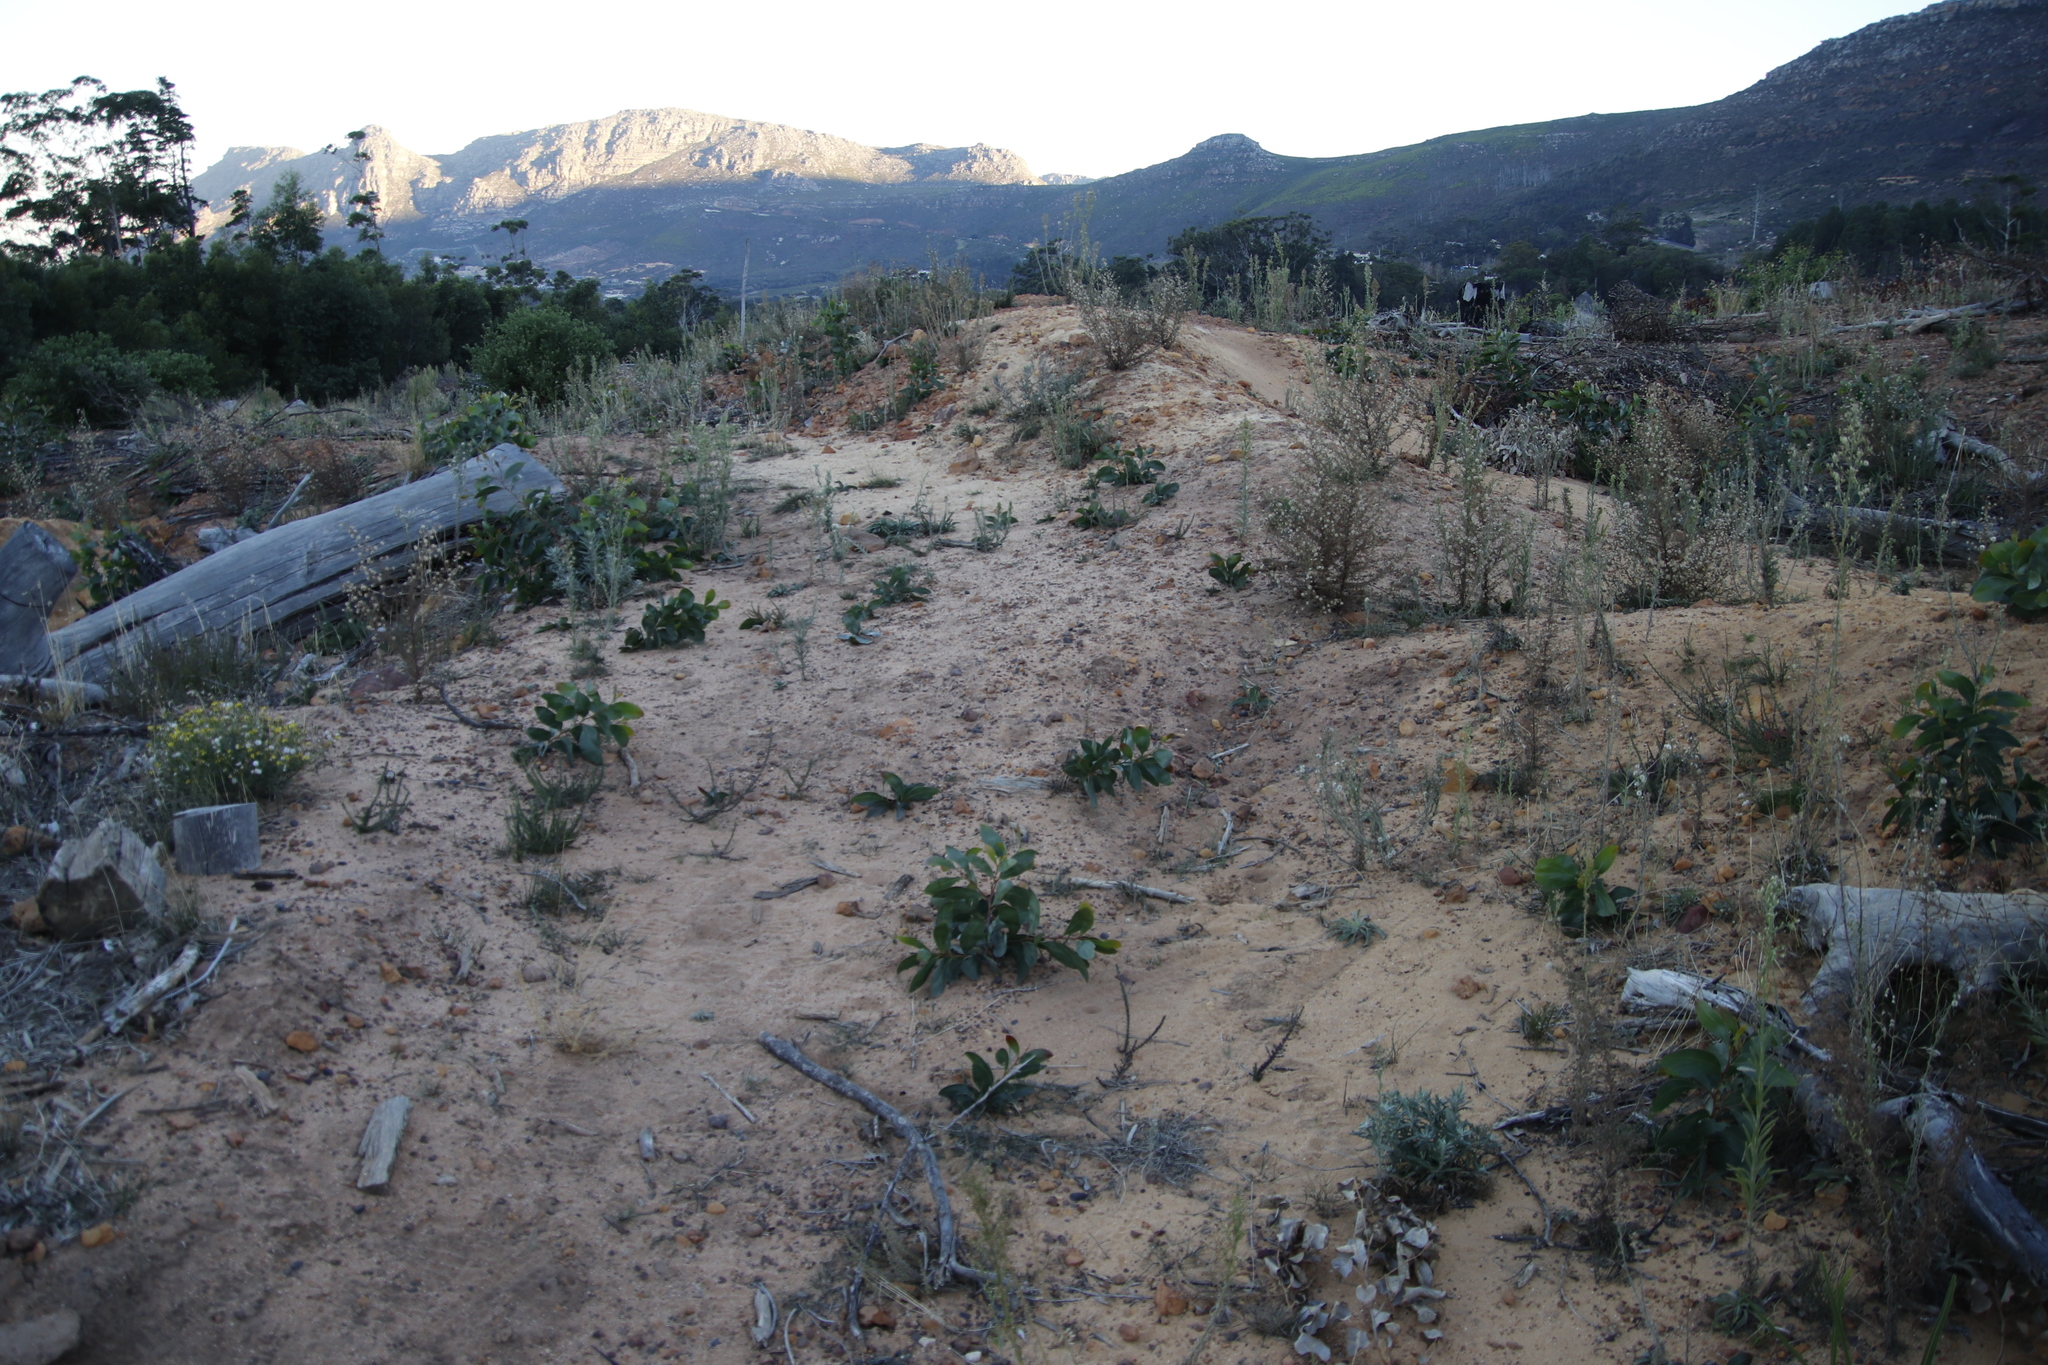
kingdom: Plantae
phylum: Tracheophyta
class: Magnoliopsida
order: Fabales
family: Fabaceae
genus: Acacia
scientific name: Acacia pycnantha
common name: Golden wattle
